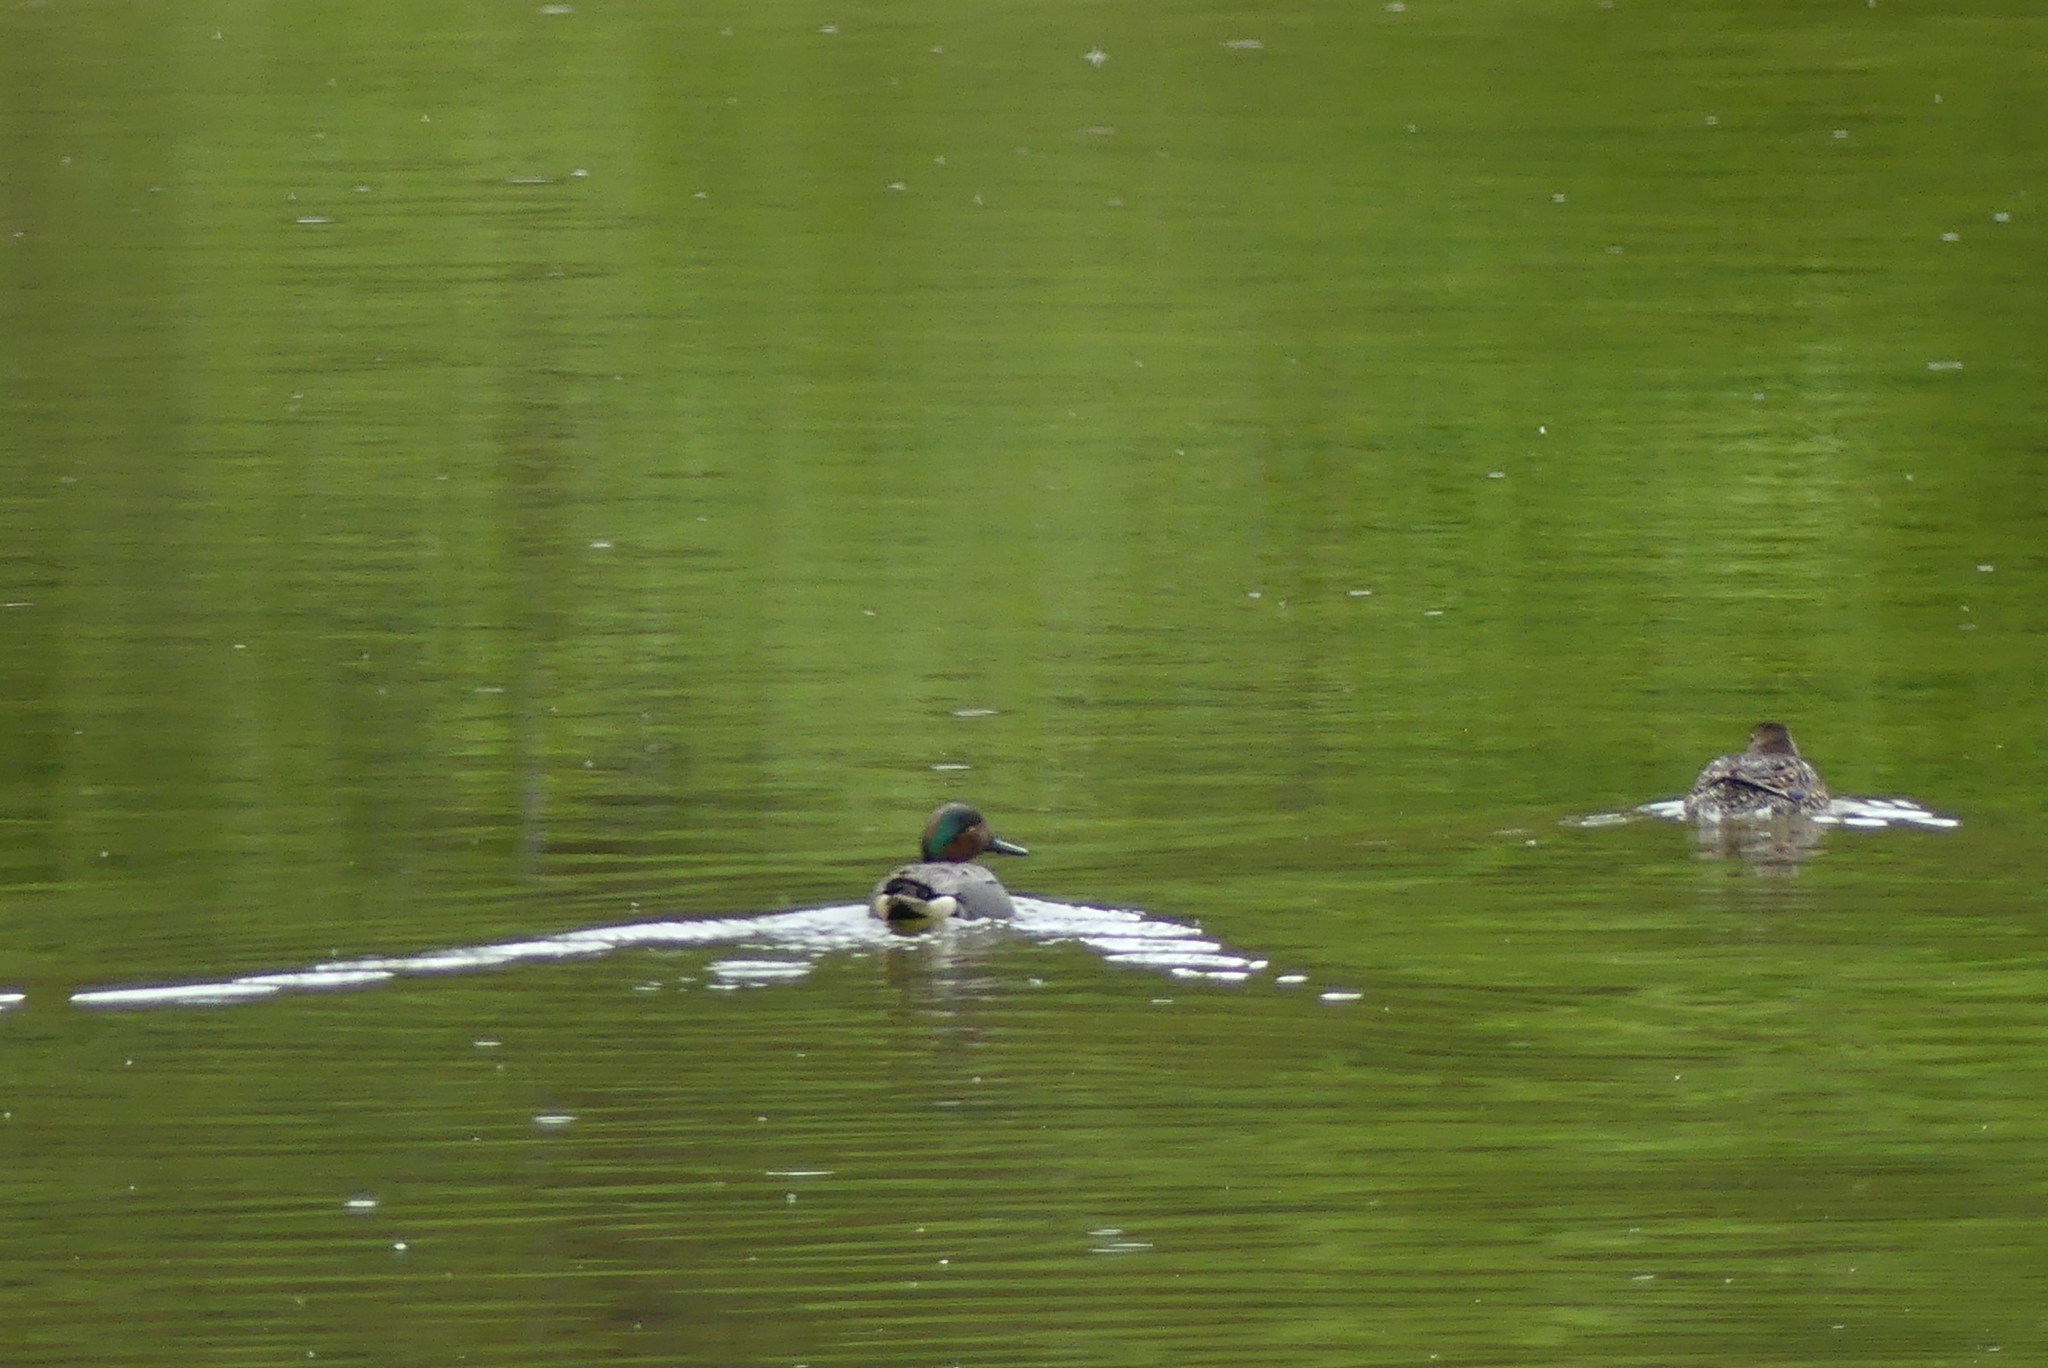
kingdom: Animalia
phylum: Chordata
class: Aves
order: Anseriformes
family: Anatidae
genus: Anas
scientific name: Anas crecca
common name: Eurasian teal
